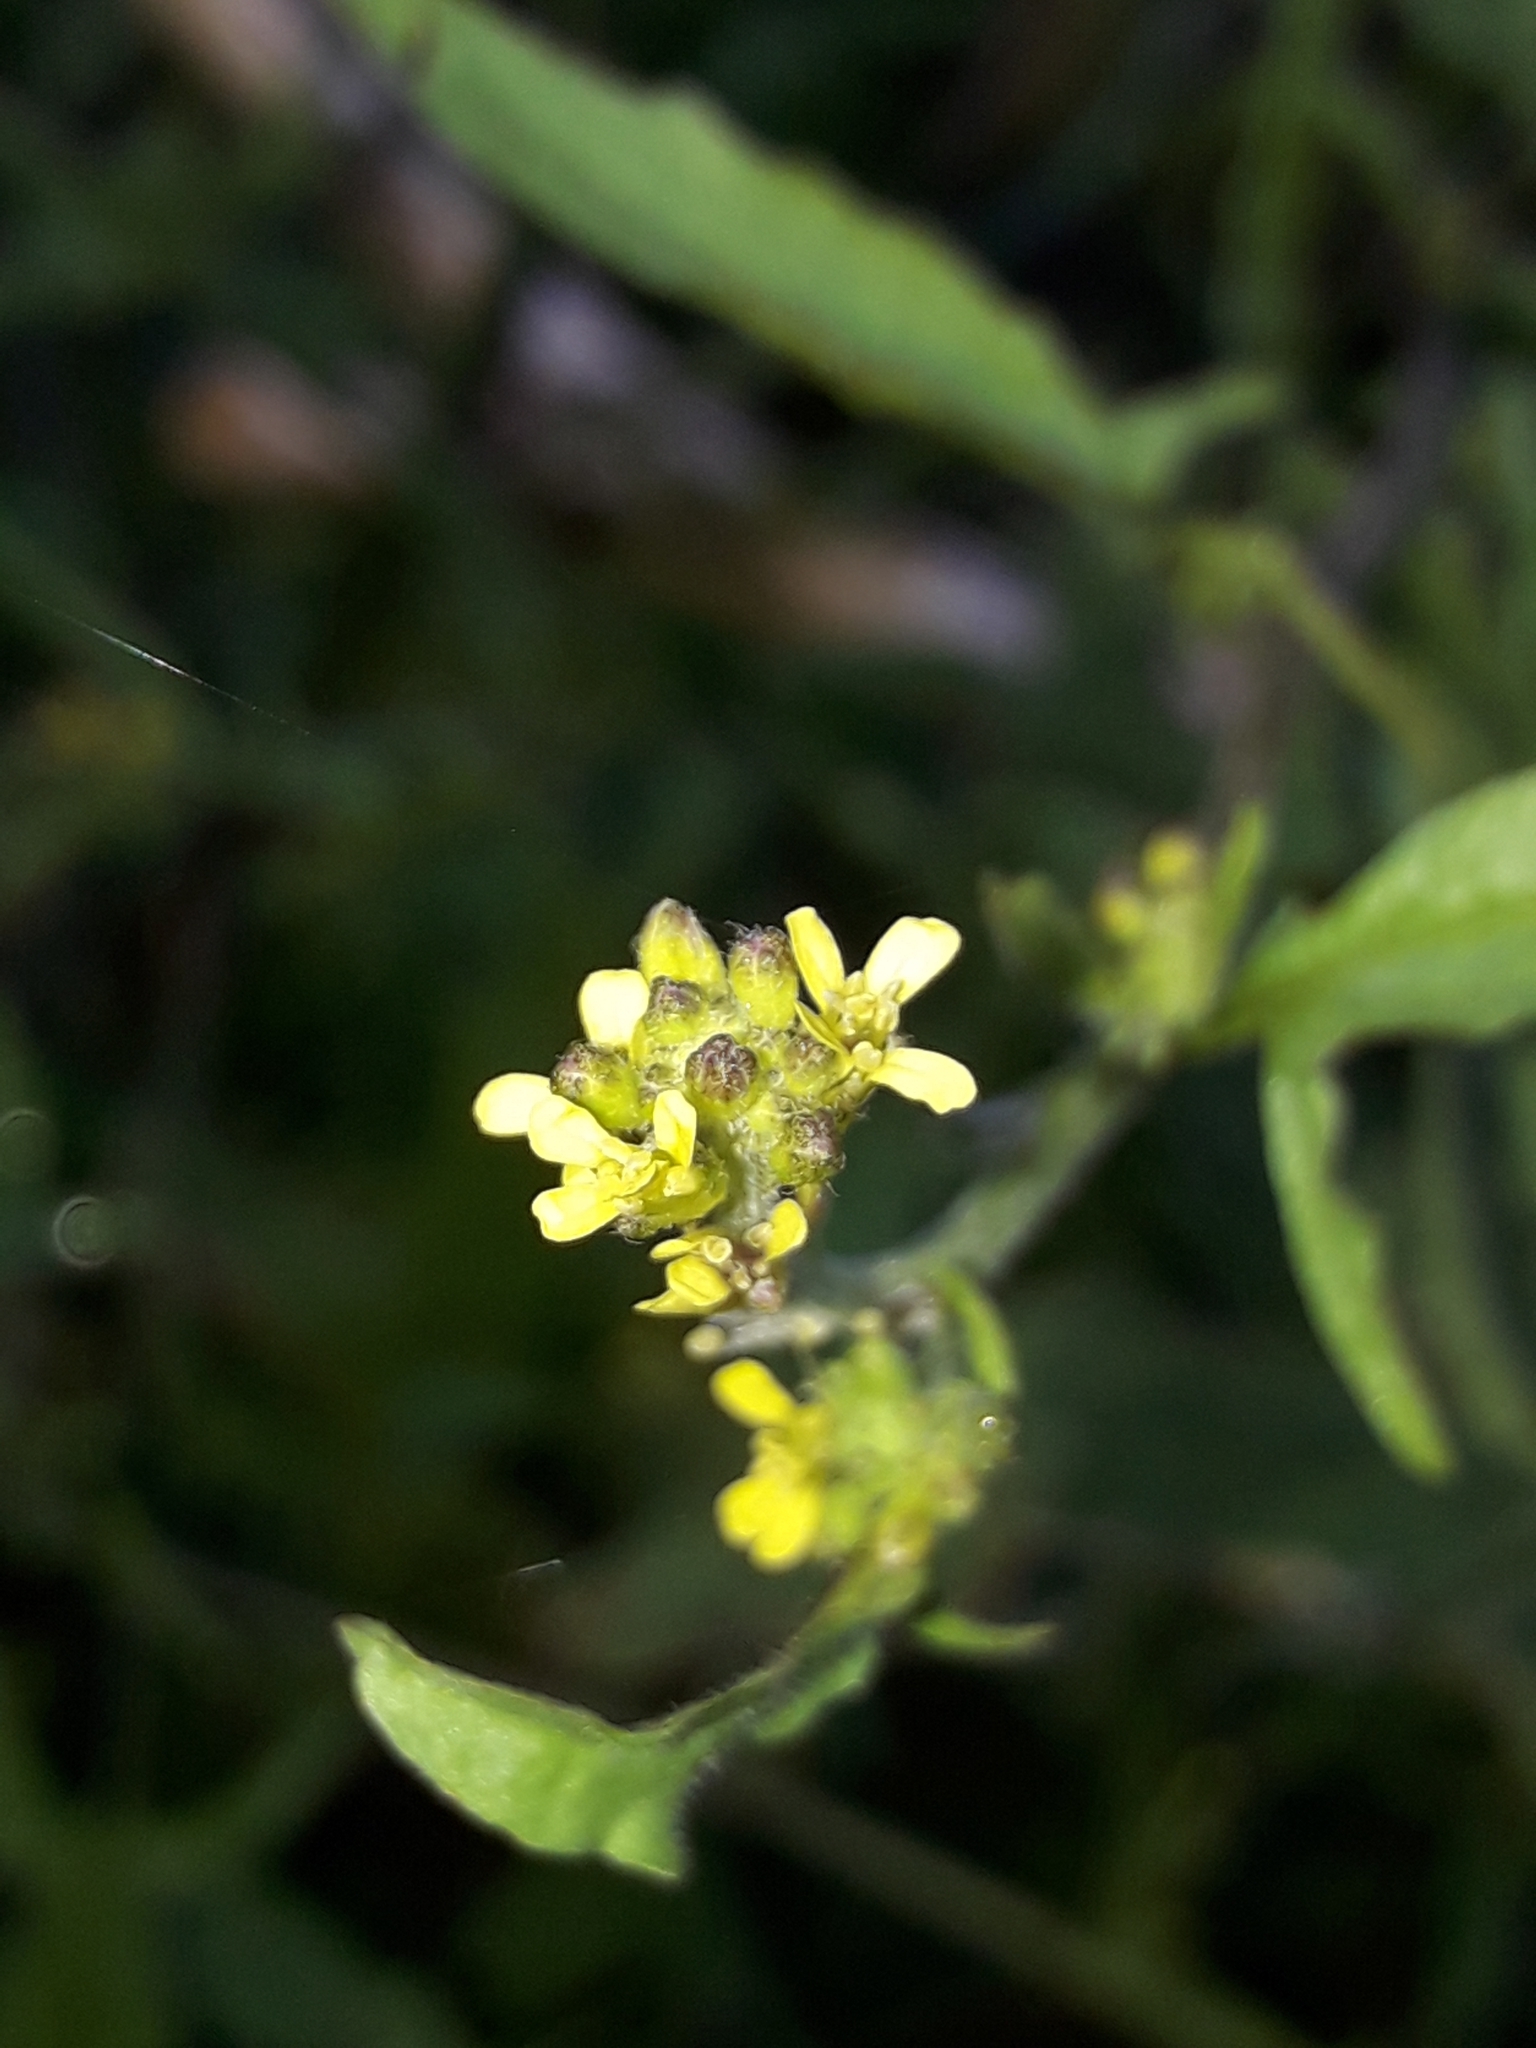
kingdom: Plantae
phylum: Tracheophyta
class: Magnoliopsida
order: Brassicales
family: Brassicaceae
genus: Sisymbrium
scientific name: Sisymbrium officinale
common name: Hedge mustard
